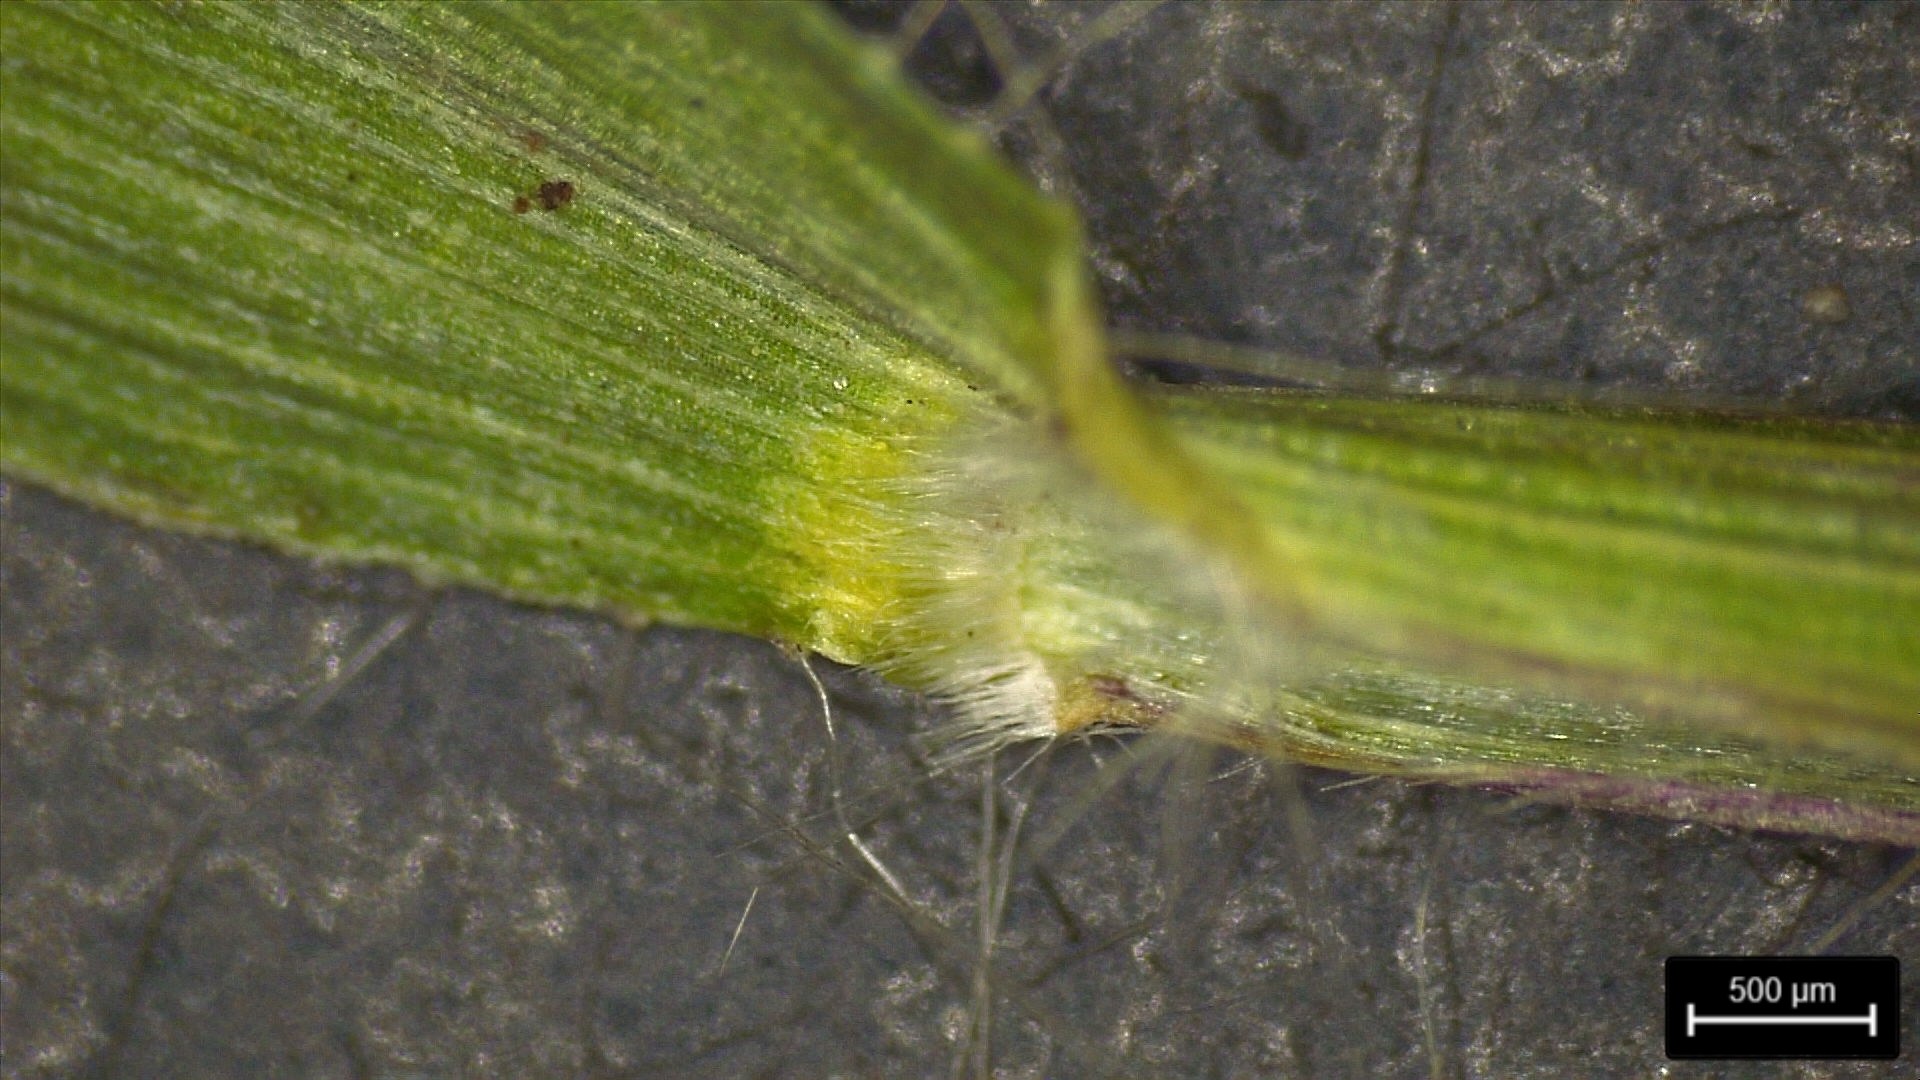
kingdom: Plantae
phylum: Tracheophyta
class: Liliopsida
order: Poales
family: Poaceae
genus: Dichanthelium
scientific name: Dichanthelium scribnerianum
